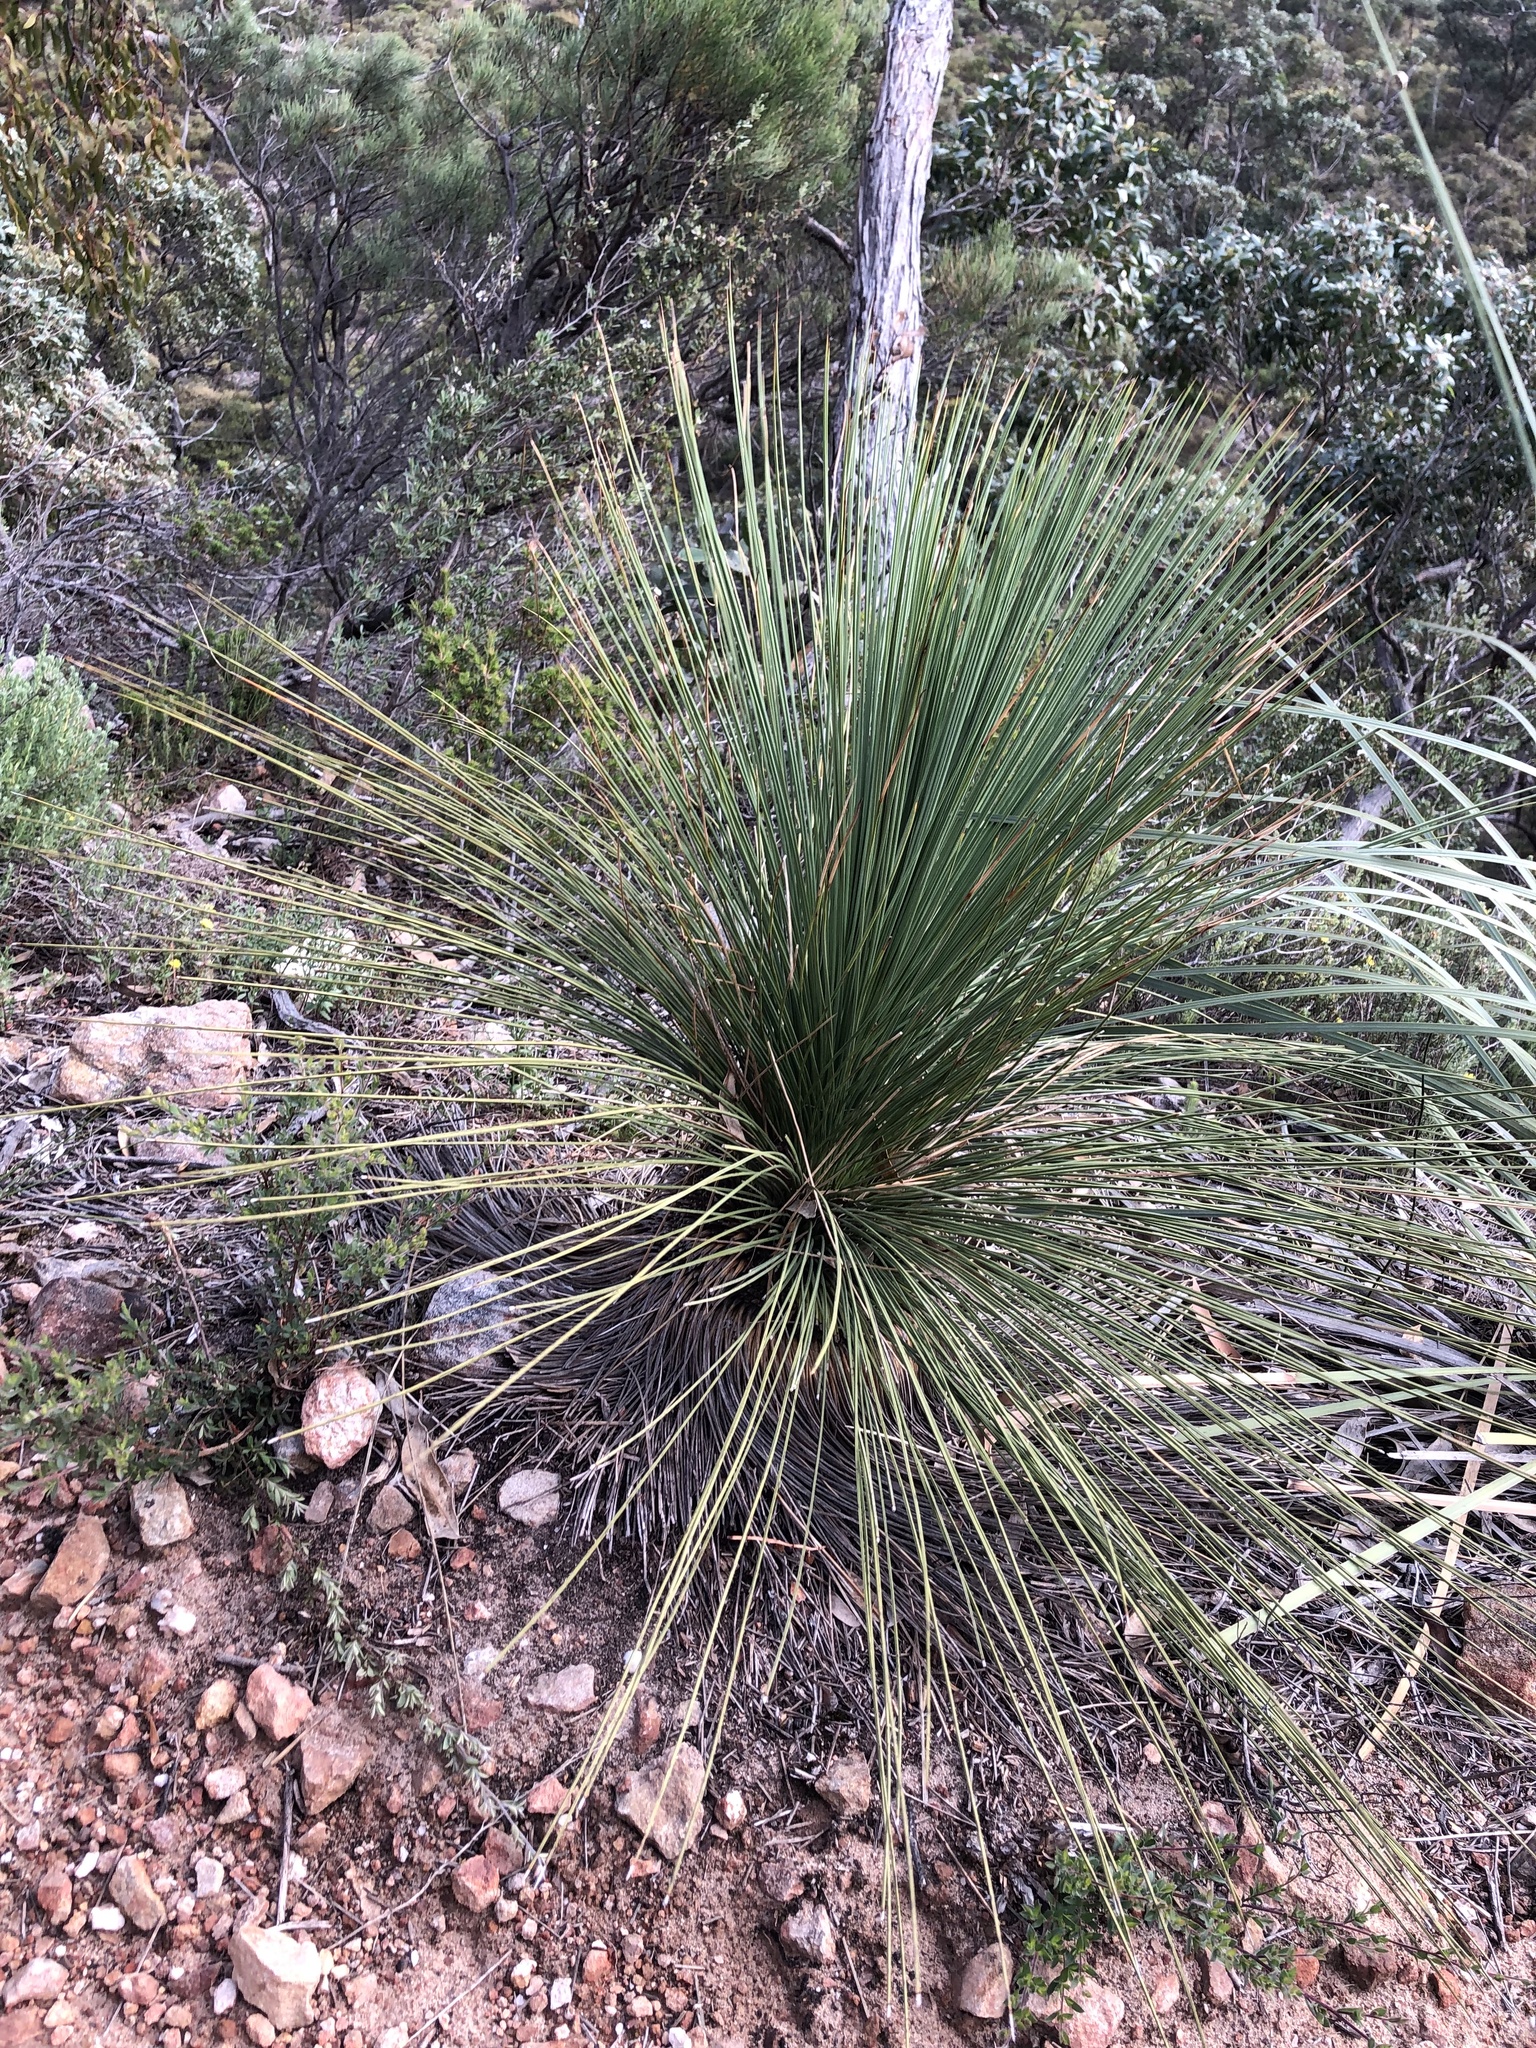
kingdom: Plantae
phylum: Tracheophyta
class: Liliopsida
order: Asparagales
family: Asphodelaceae
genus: Xanthorrhoea
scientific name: Xanthorrhoea quadrangulata
